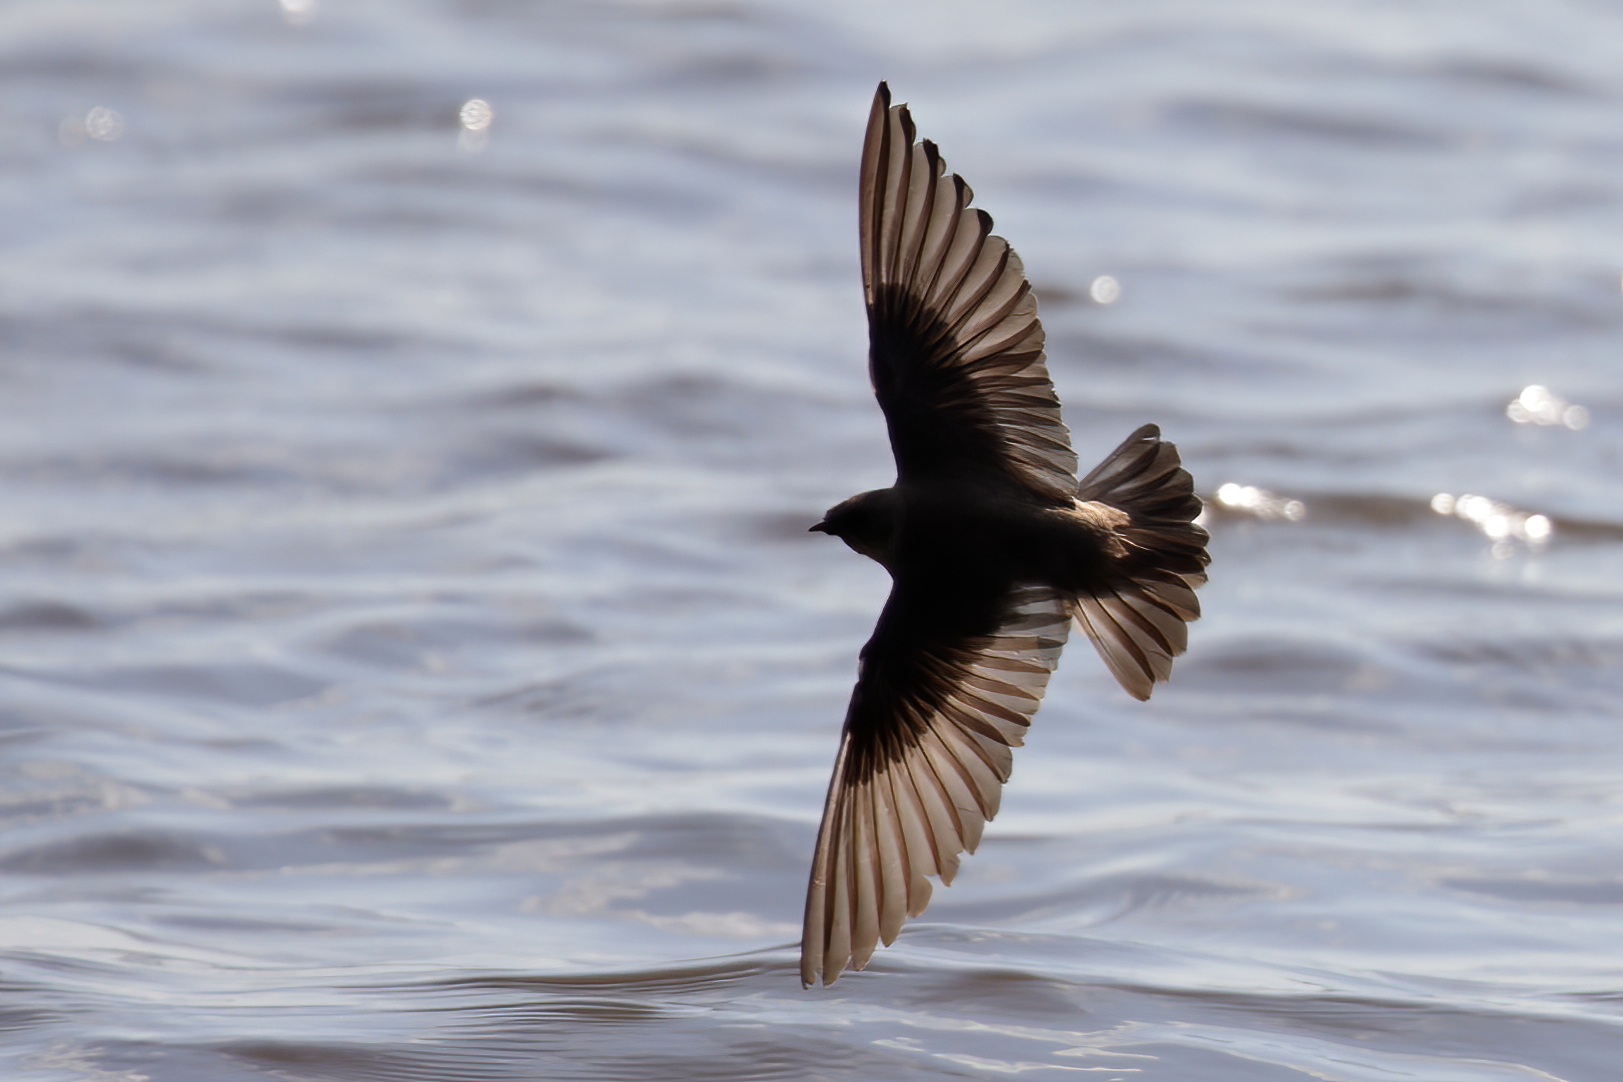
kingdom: Animalia
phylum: Chordata
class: Aves
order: Passeriformes
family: Hirundinidae
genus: Stelgidopteryx
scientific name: Stelgidopteryx serripennis
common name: Northern rough-winged swallow
